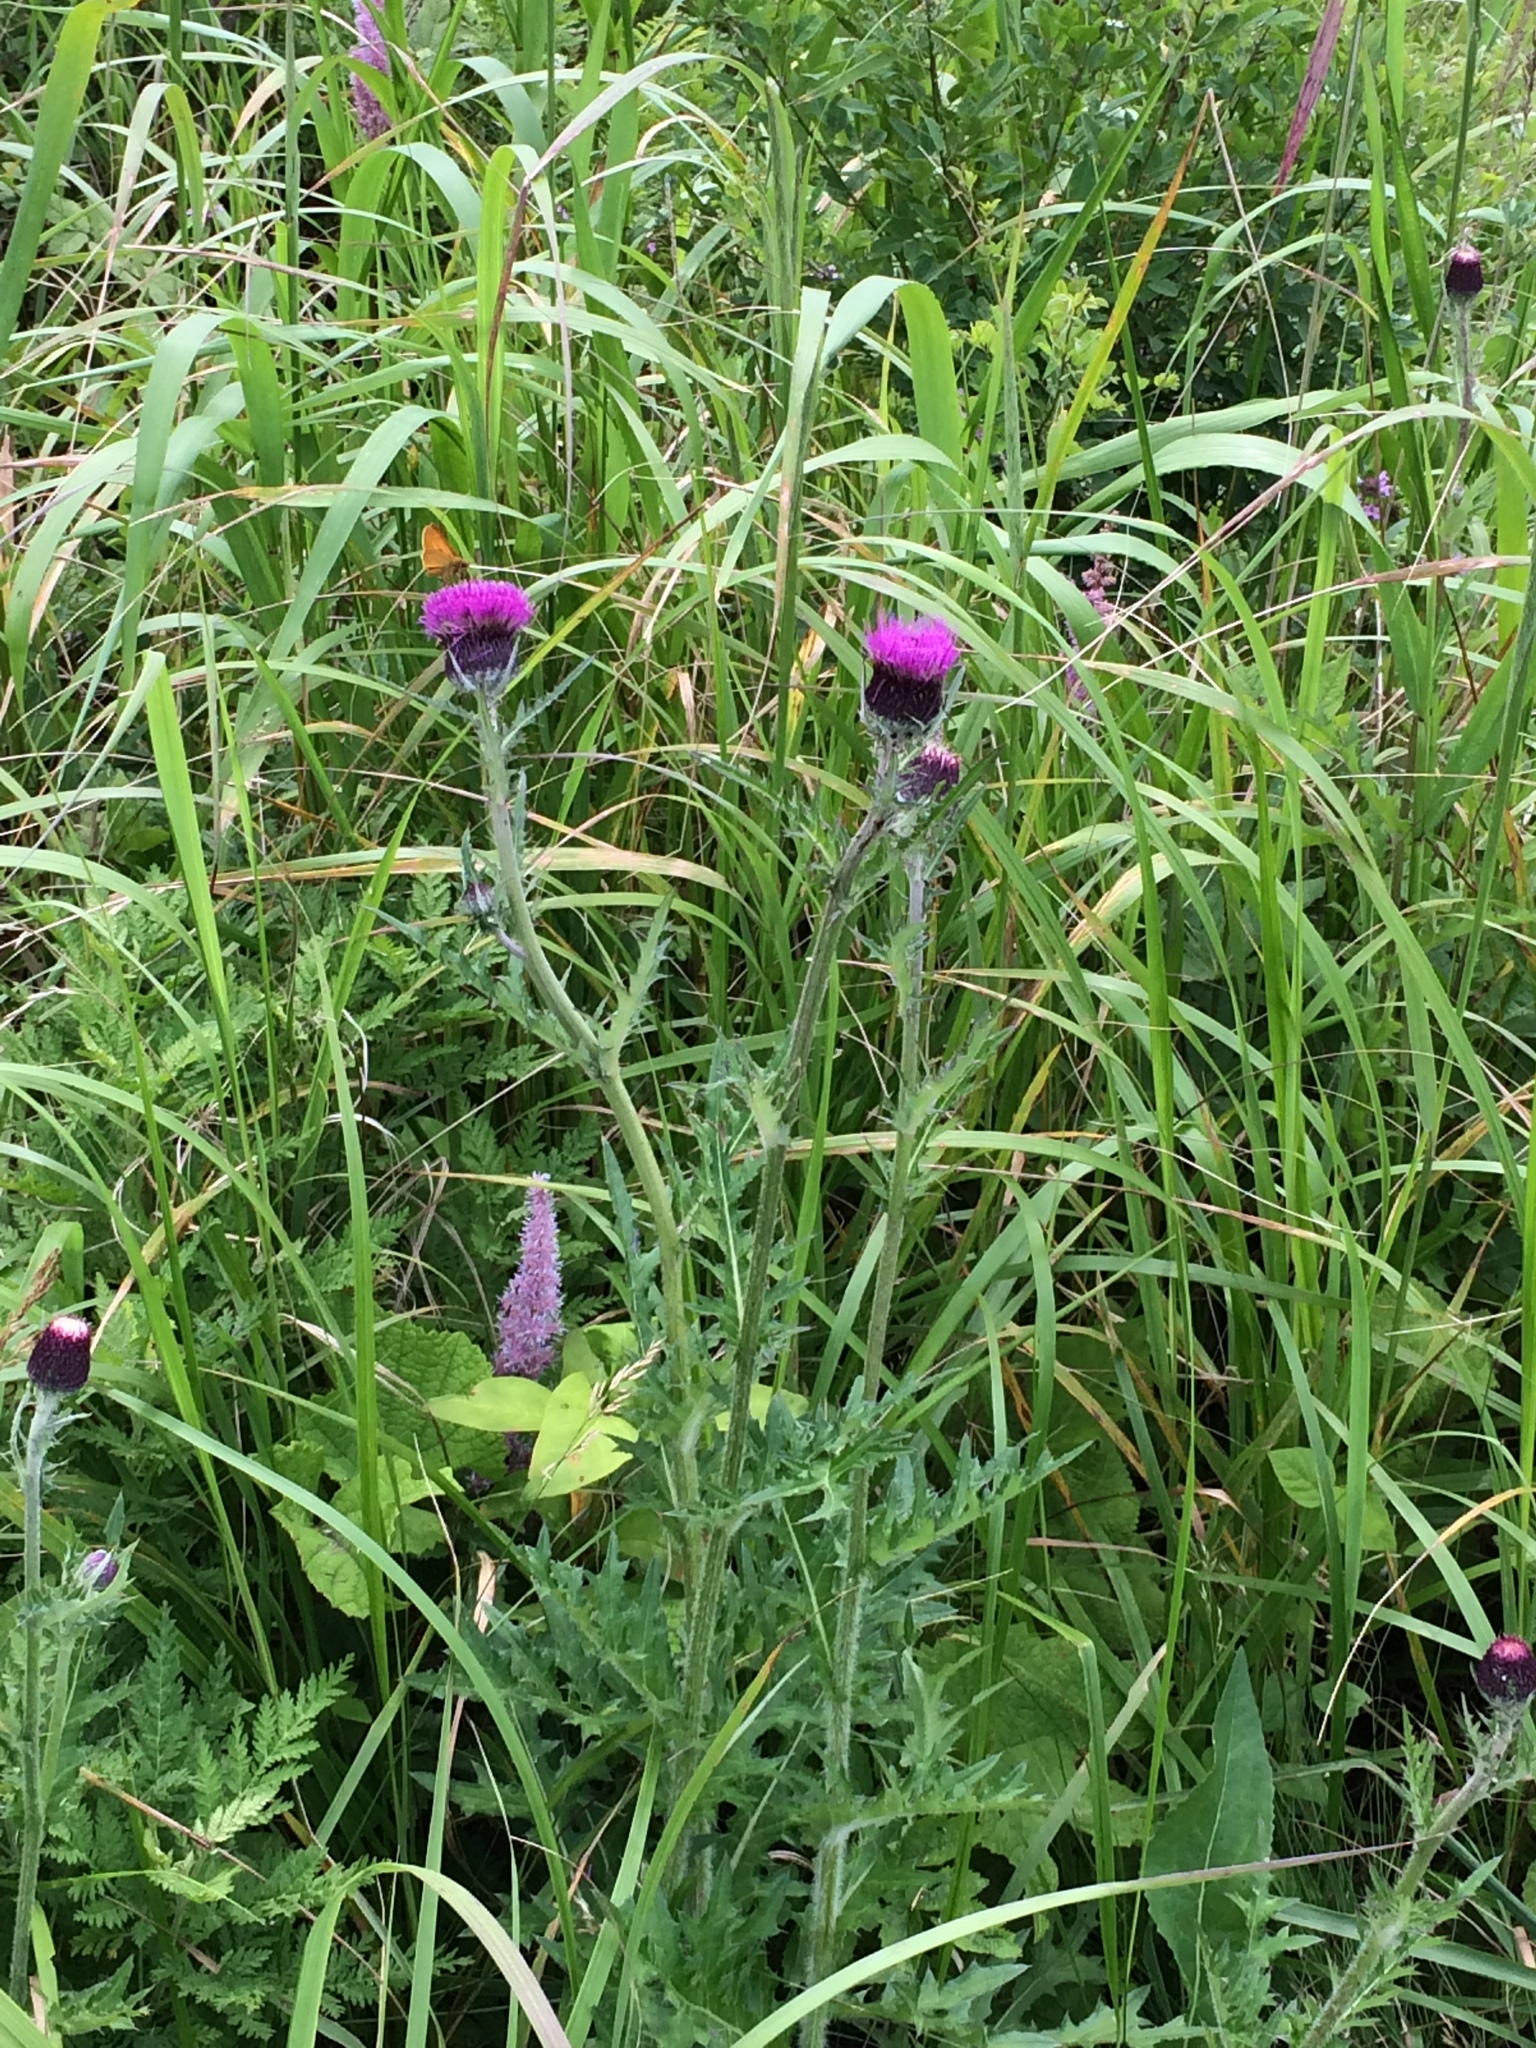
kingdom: Plantae
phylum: Tracheophyta
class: Magnoliopsida
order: Asterales
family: Asteraceae
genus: Cirsium
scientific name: Cirsium maackii
